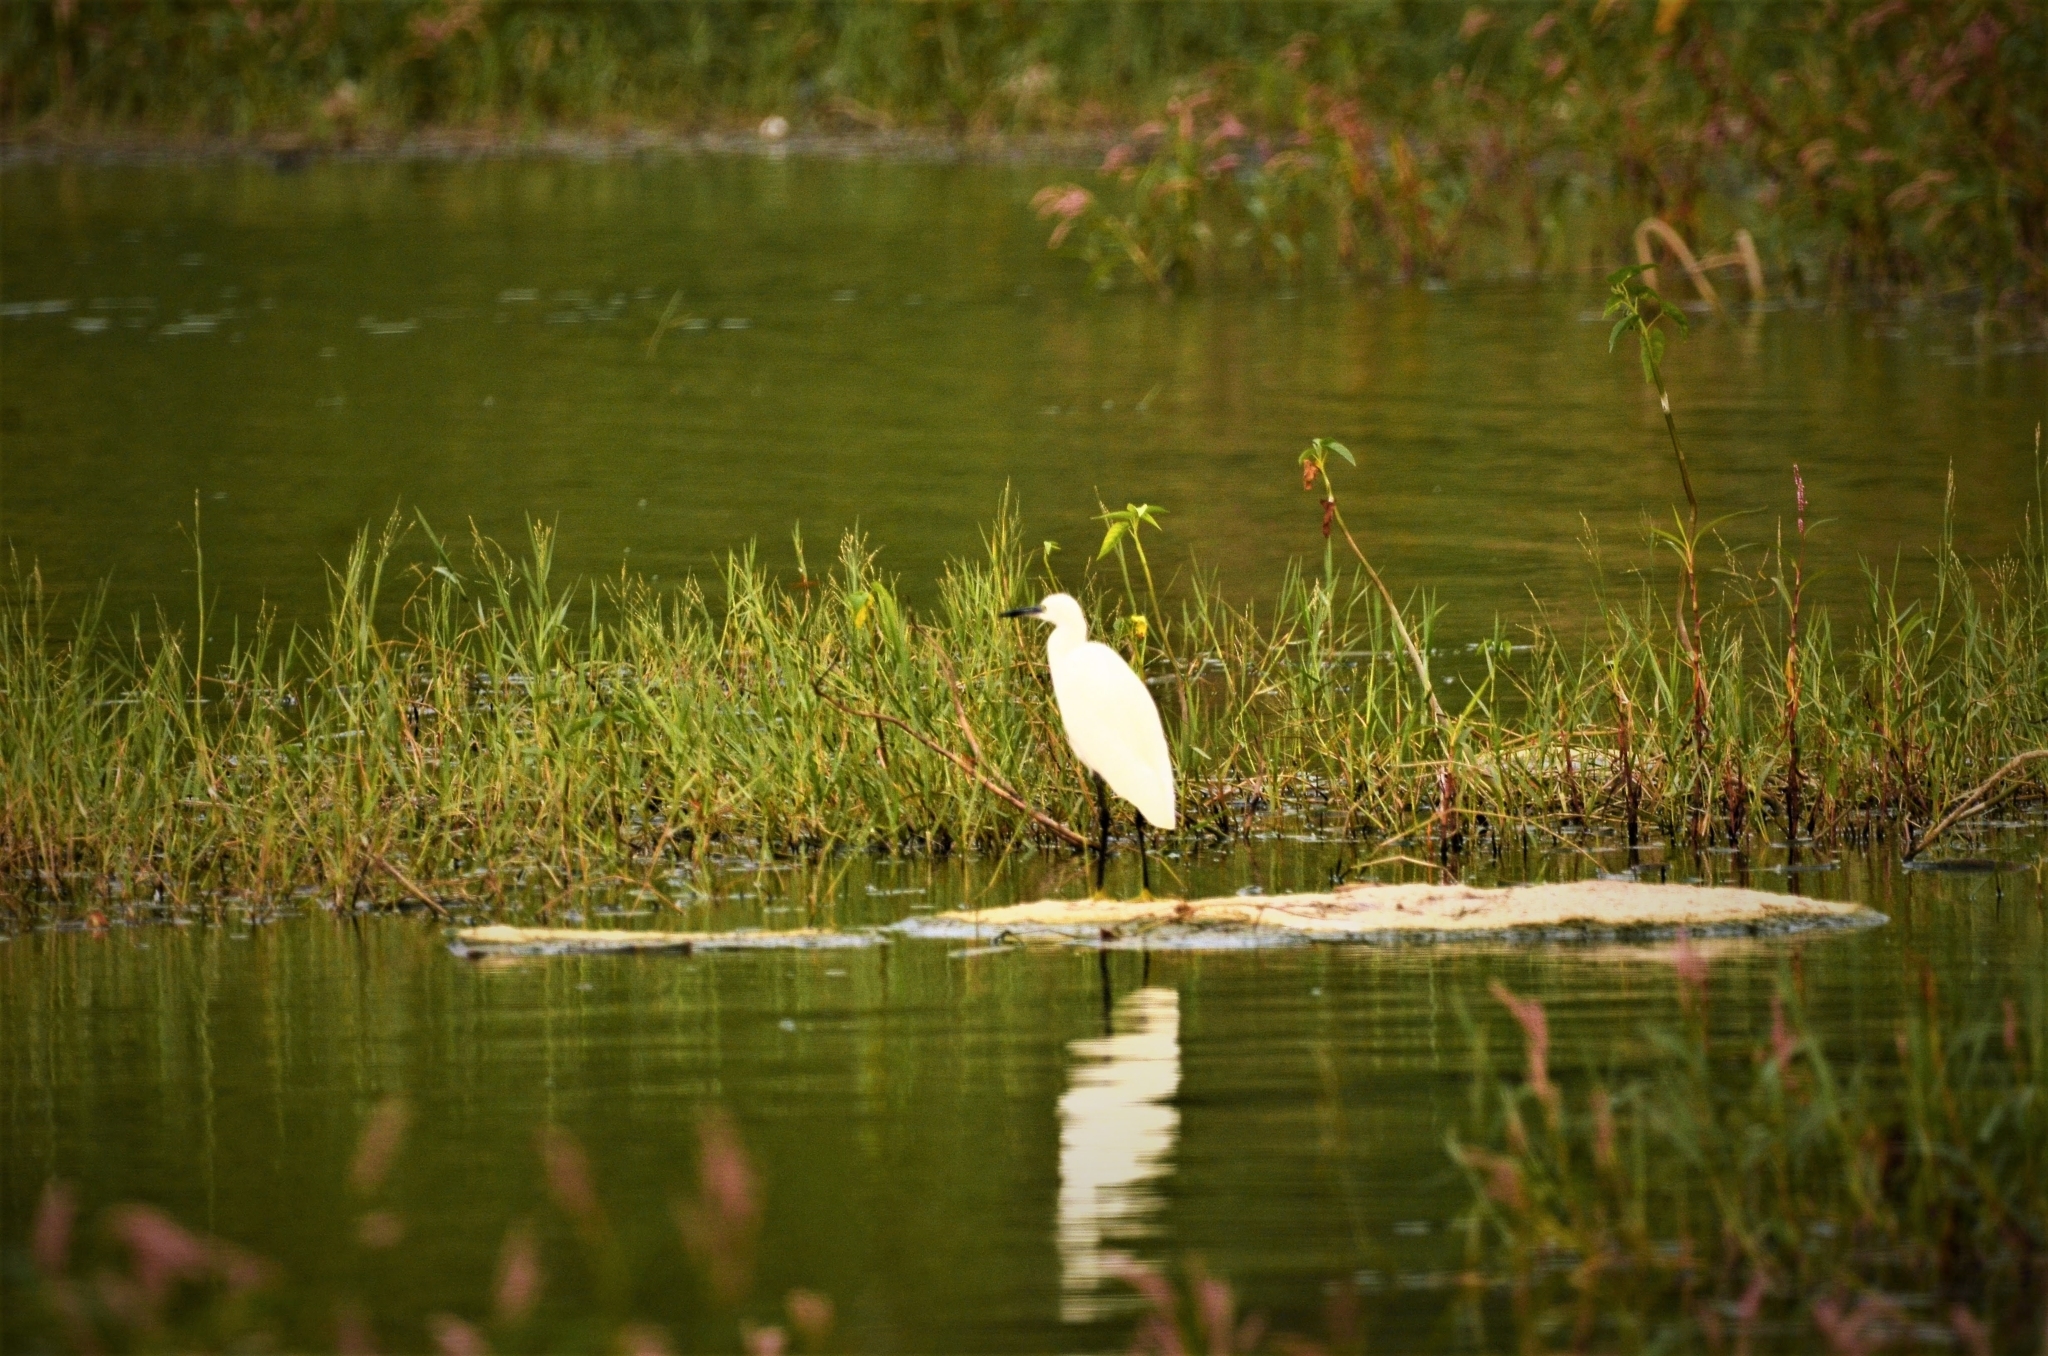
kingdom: Animalia
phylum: Chordata
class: Aves
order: Pelecaniformes
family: Ardeidae
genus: Egretta
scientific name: Egretta garzetta
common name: Little egret
